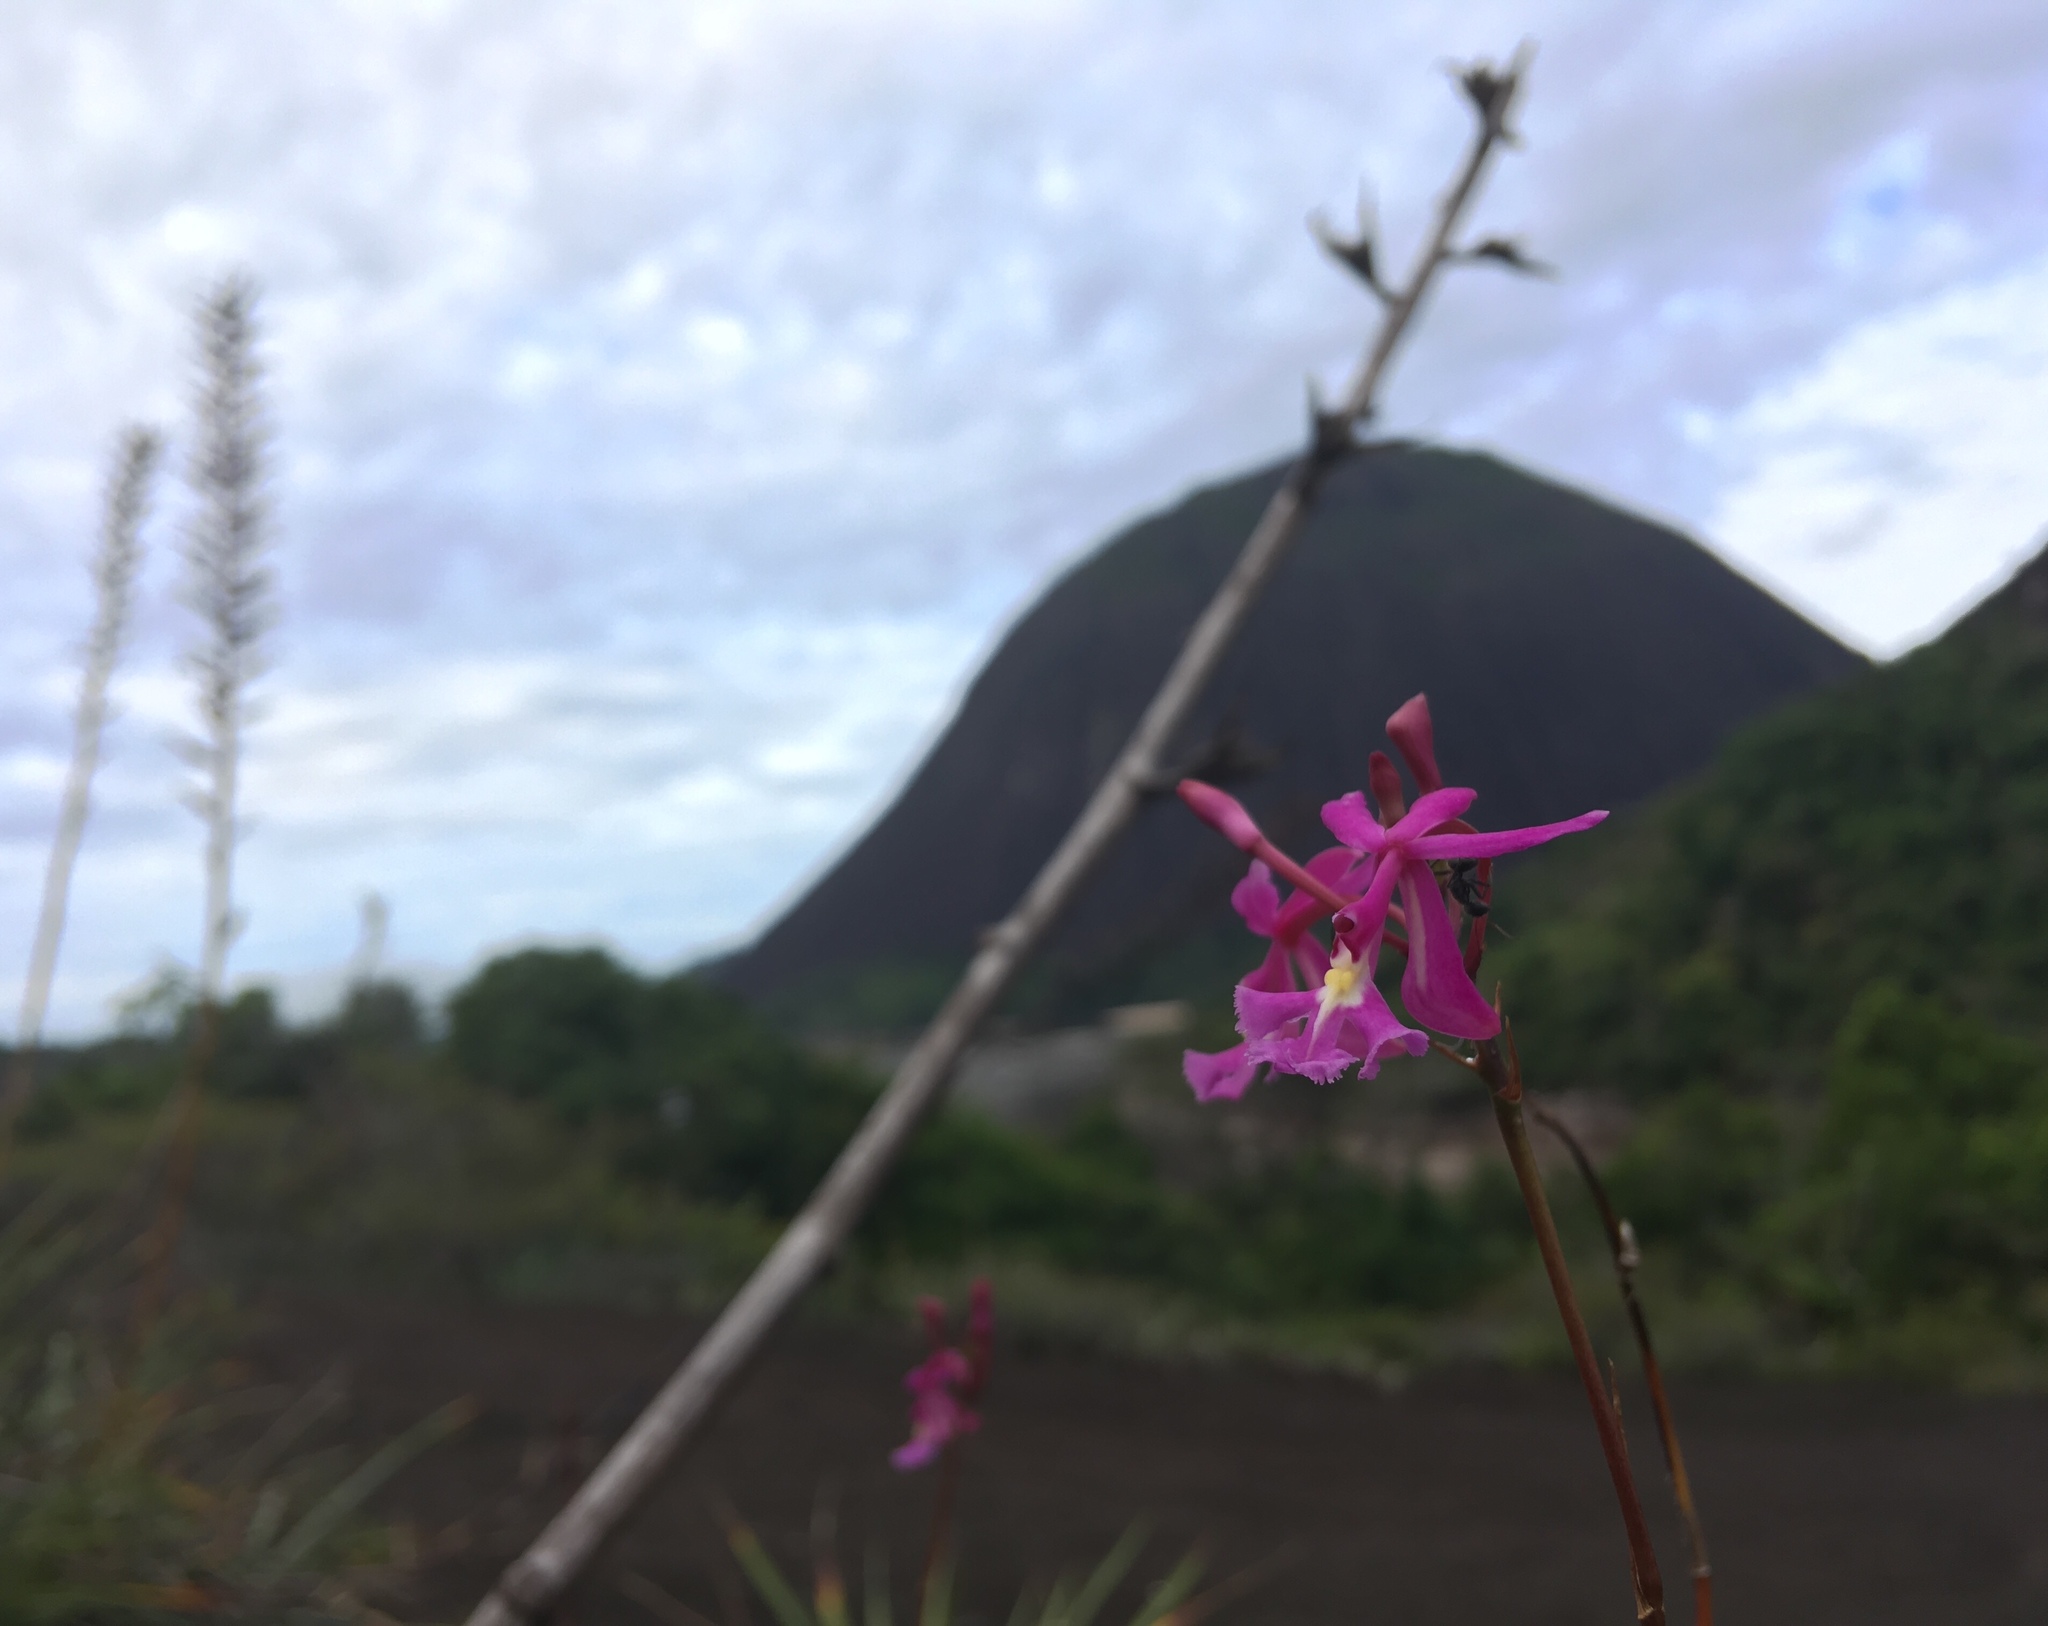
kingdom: Plantae
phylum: Tracheophyta
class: Liliopsida
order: Asparagales
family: Orchidaceae
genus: Epidendrum
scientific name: Epidendrum gransabanense
